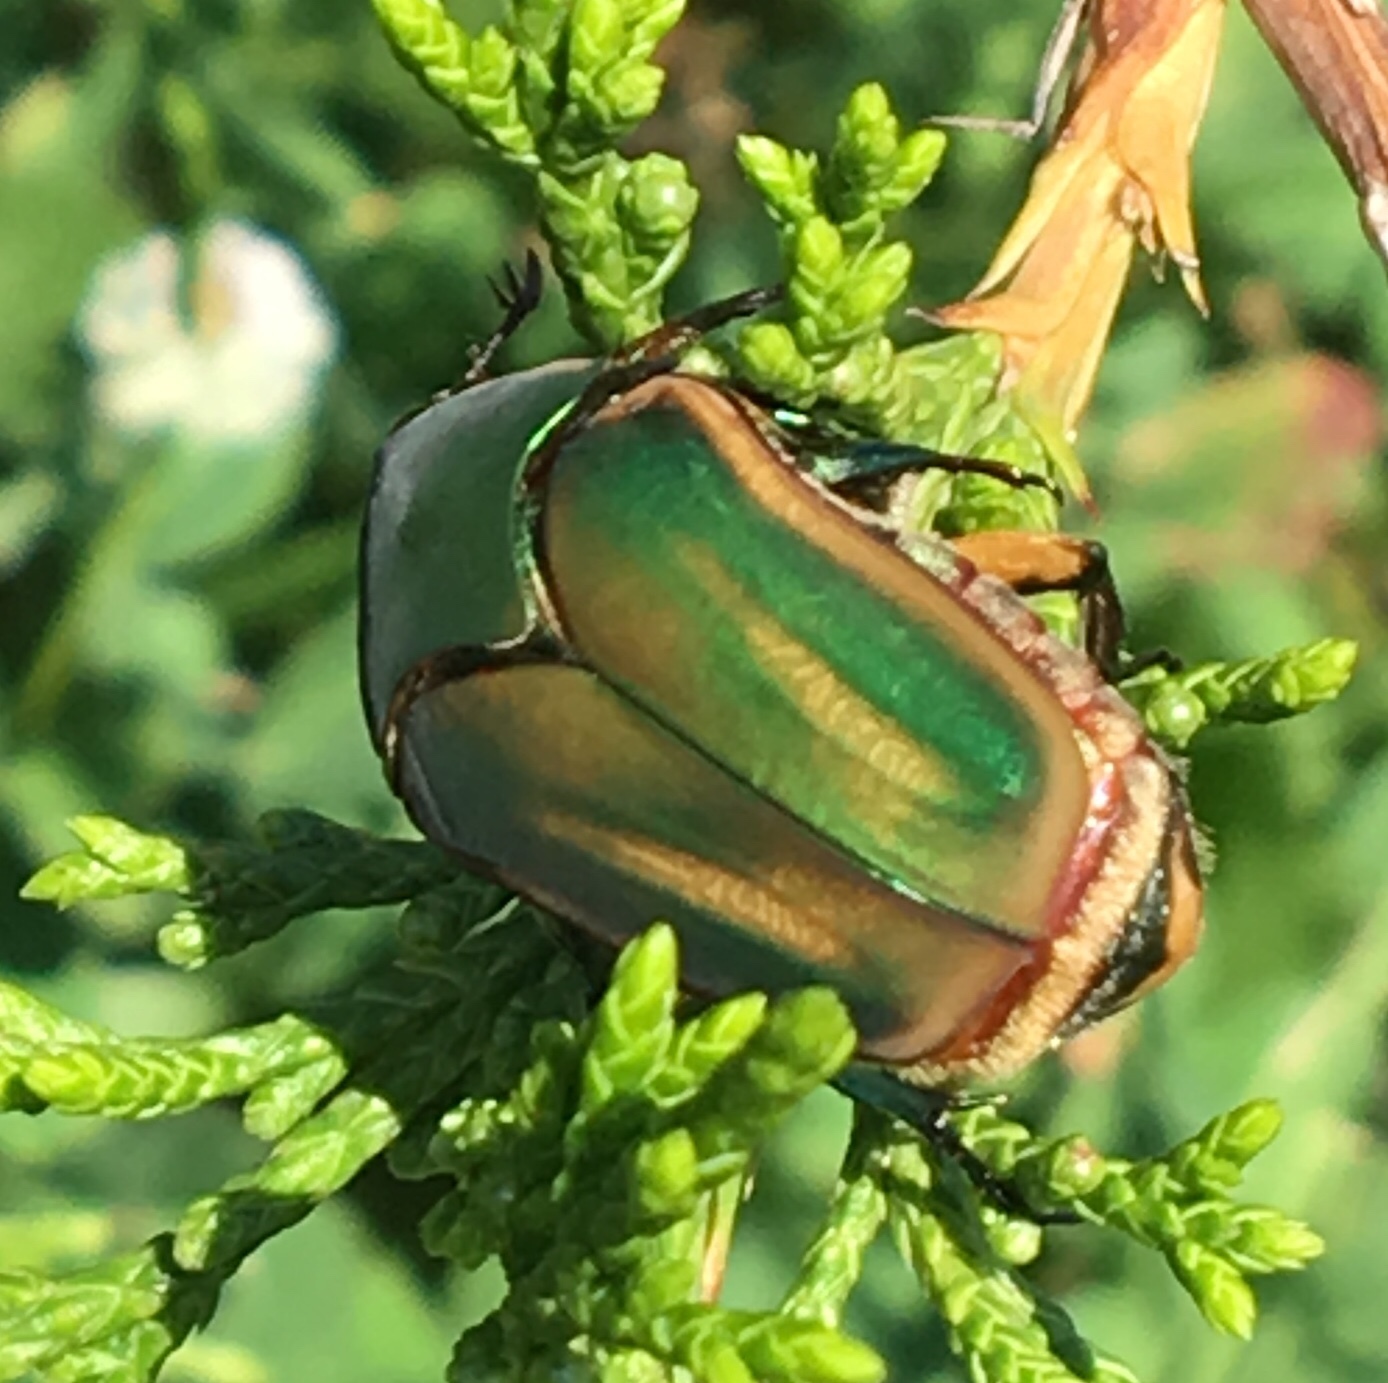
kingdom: Animalia
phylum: Arthropoda
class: Insecta
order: Coleoptera
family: Scarabaeidae
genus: Cotinis
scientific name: Cotinis nitida
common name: Common green june beetle
